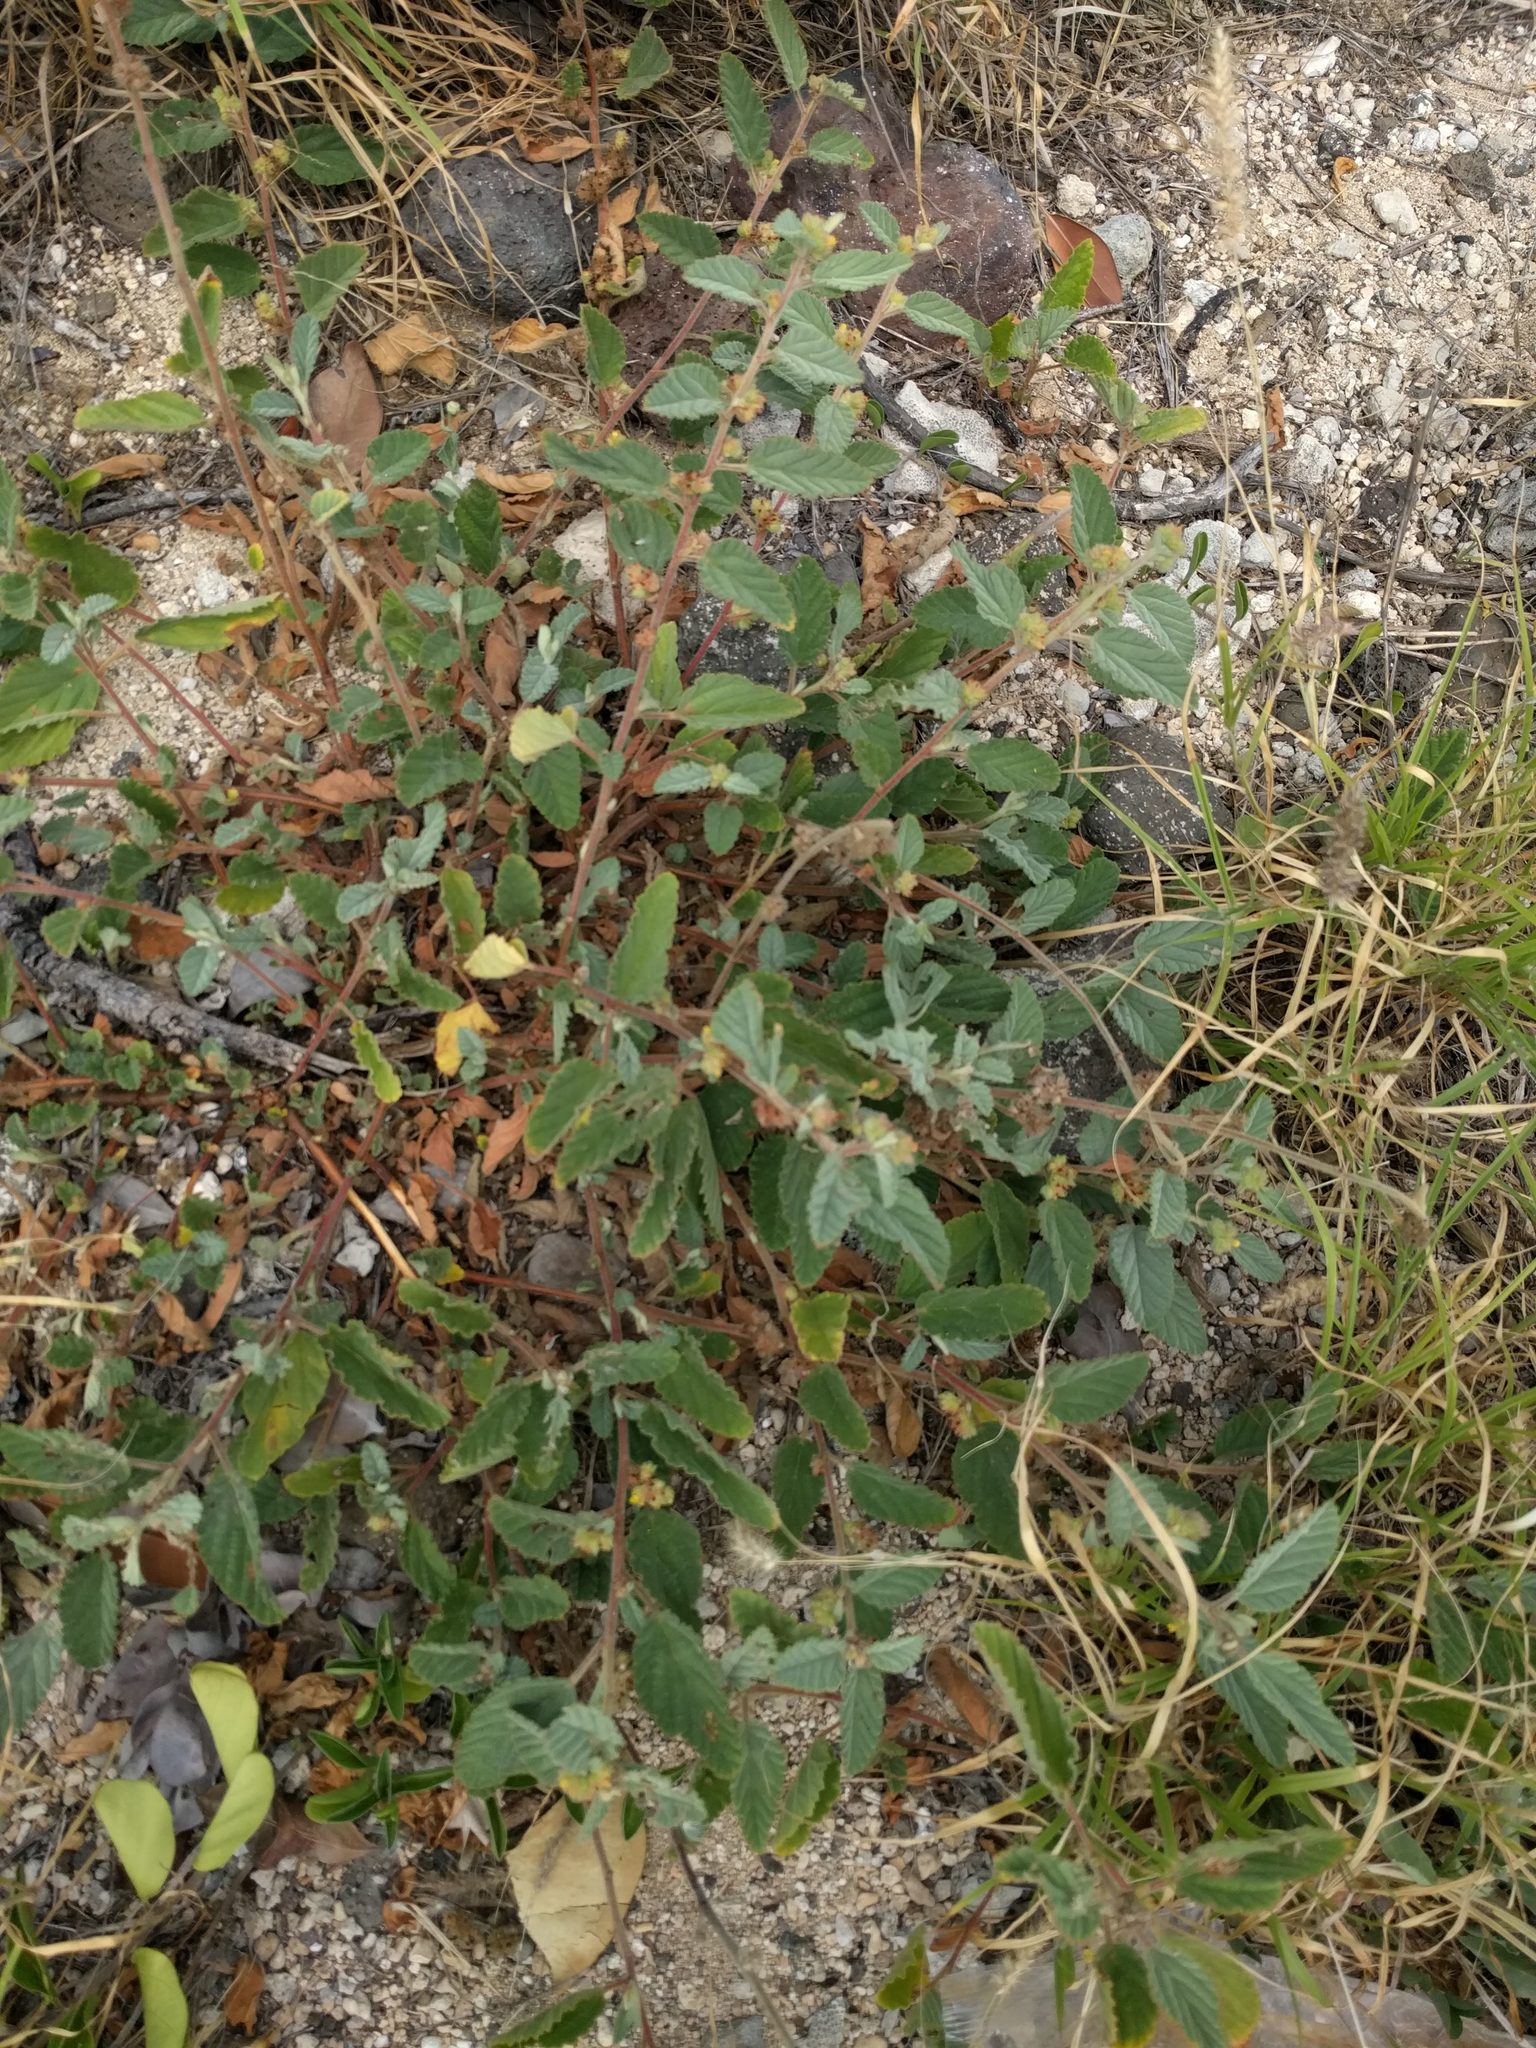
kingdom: Plantae
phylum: Tracheophyta
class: Magnoliopsida
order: Malvales
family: Malvaceae
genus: Waltheria
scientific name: Waltheria indica
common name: Leather-coat
